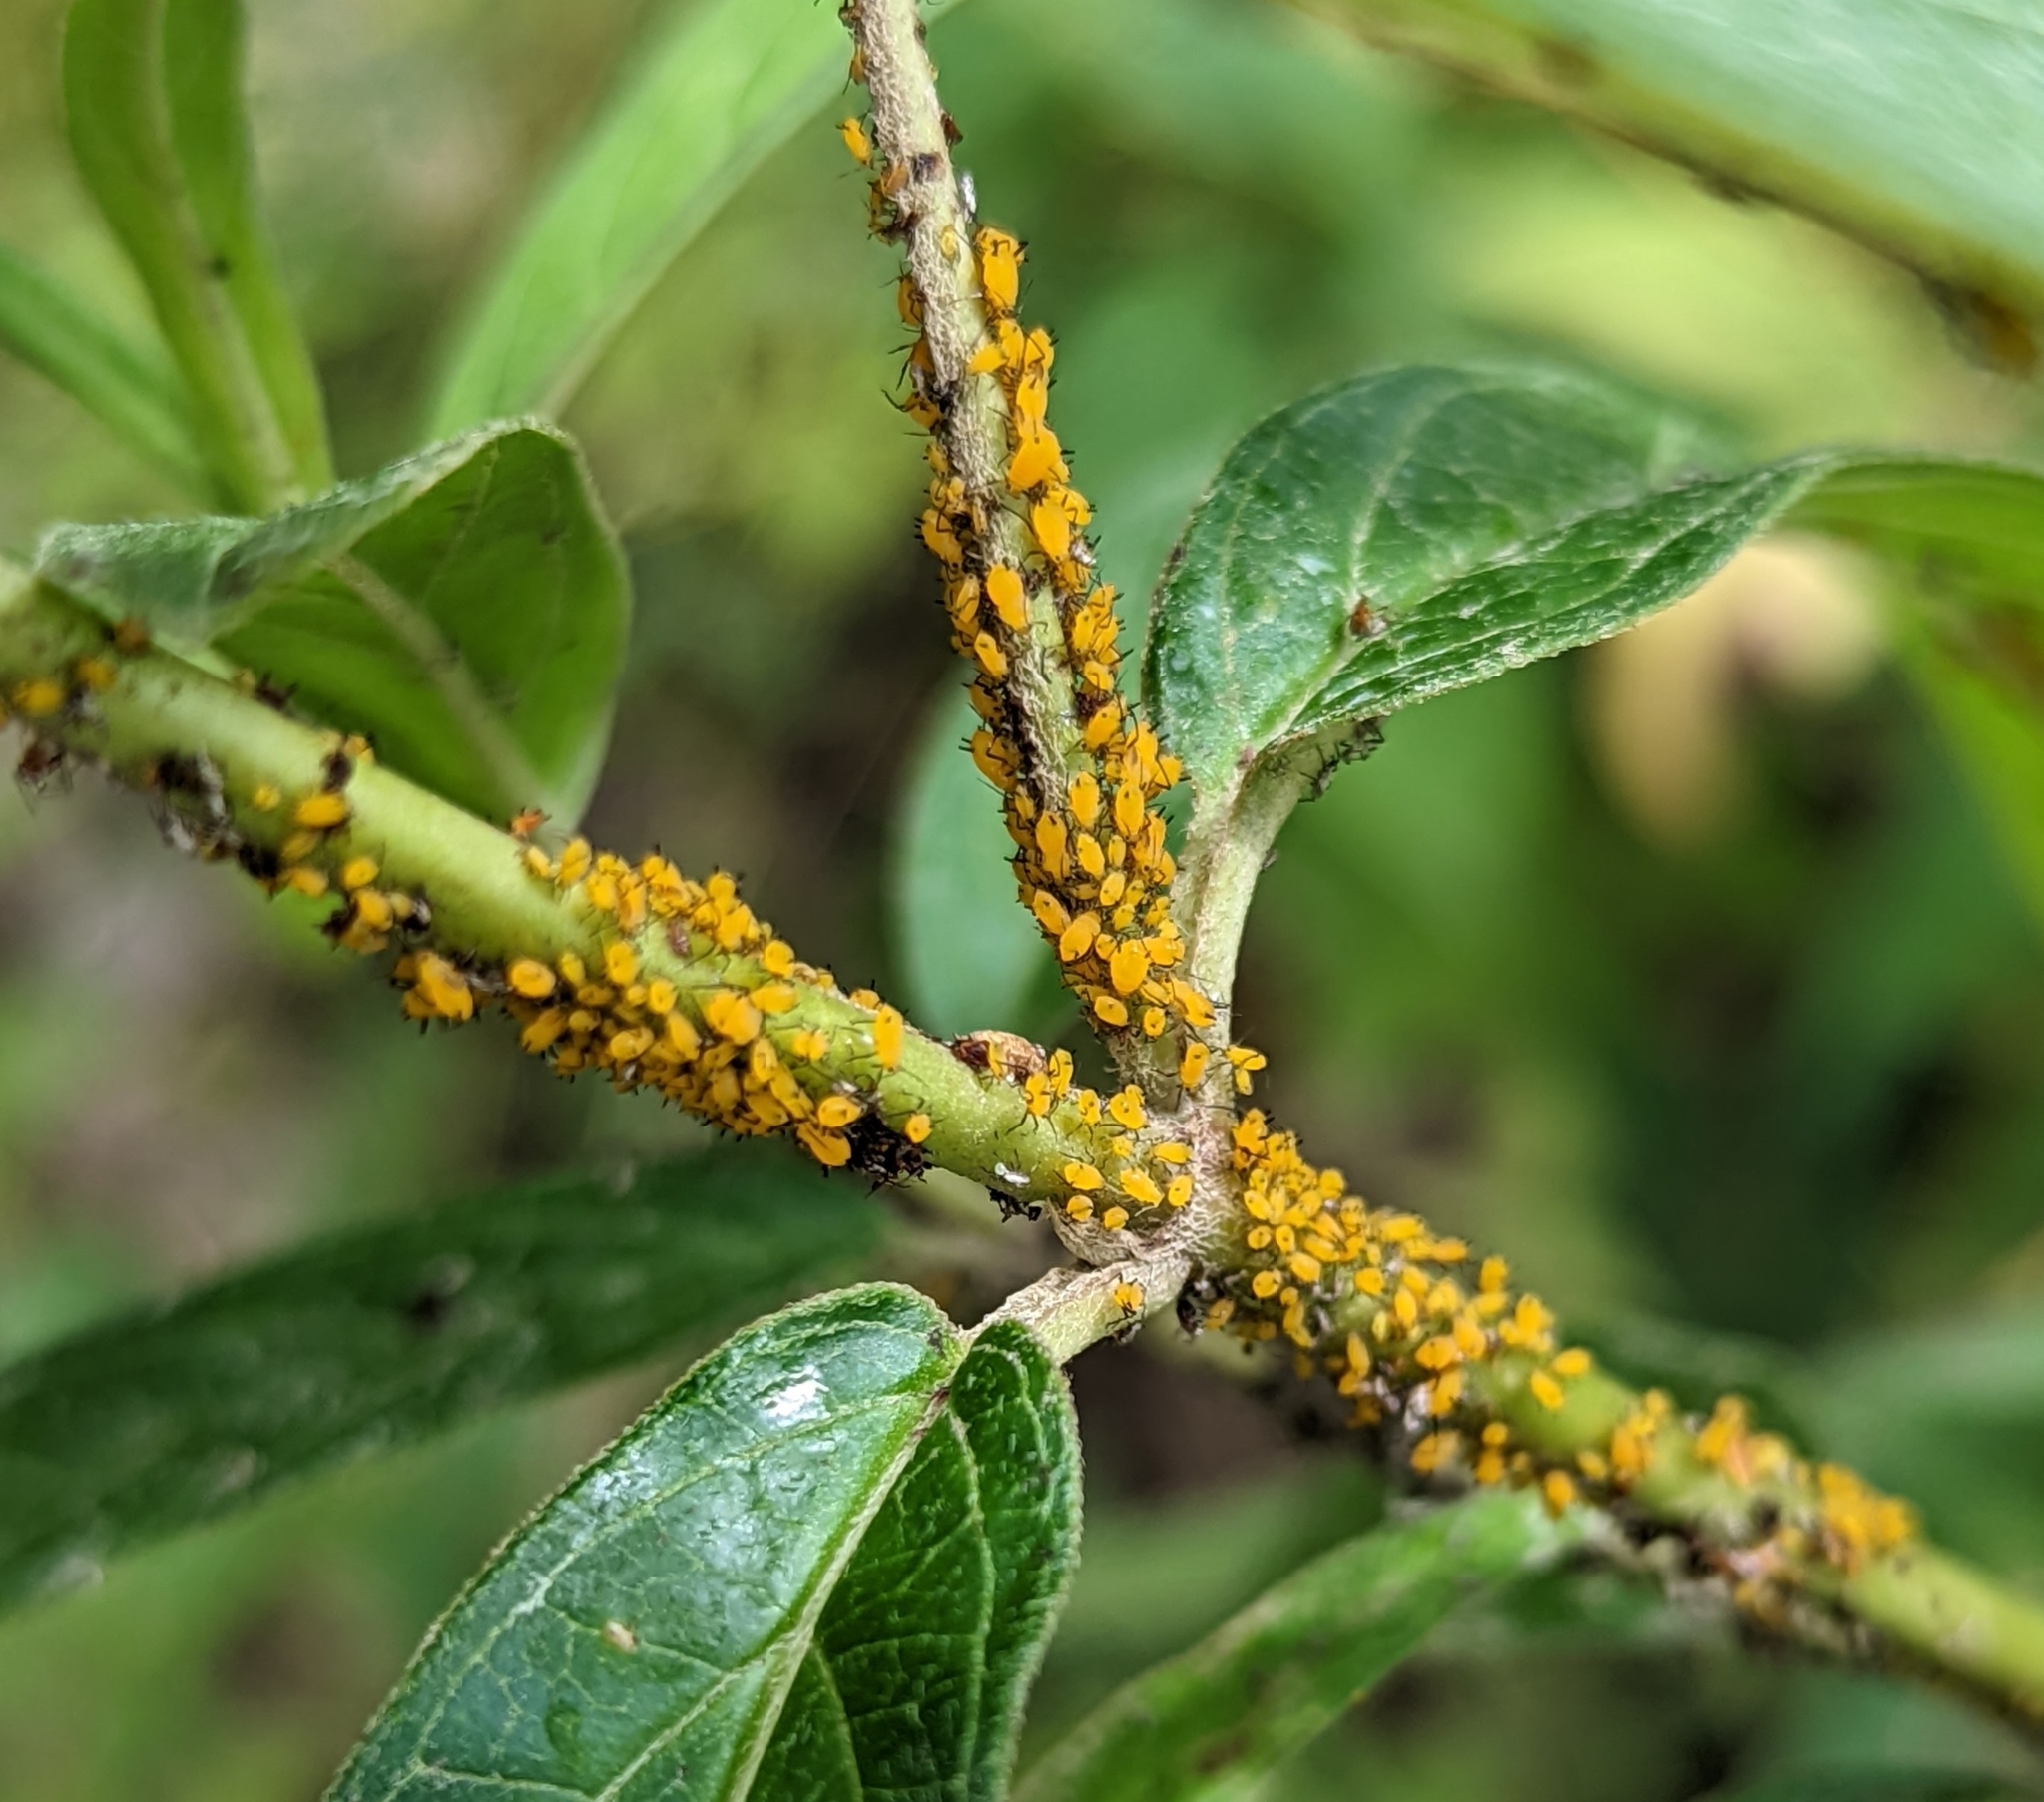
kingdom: Animalia
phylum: Arthropoda
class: Insecta
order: Hemiptera
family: Aphididae
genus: Aphis
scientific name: Aphis nerii
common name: Oleander aphid
